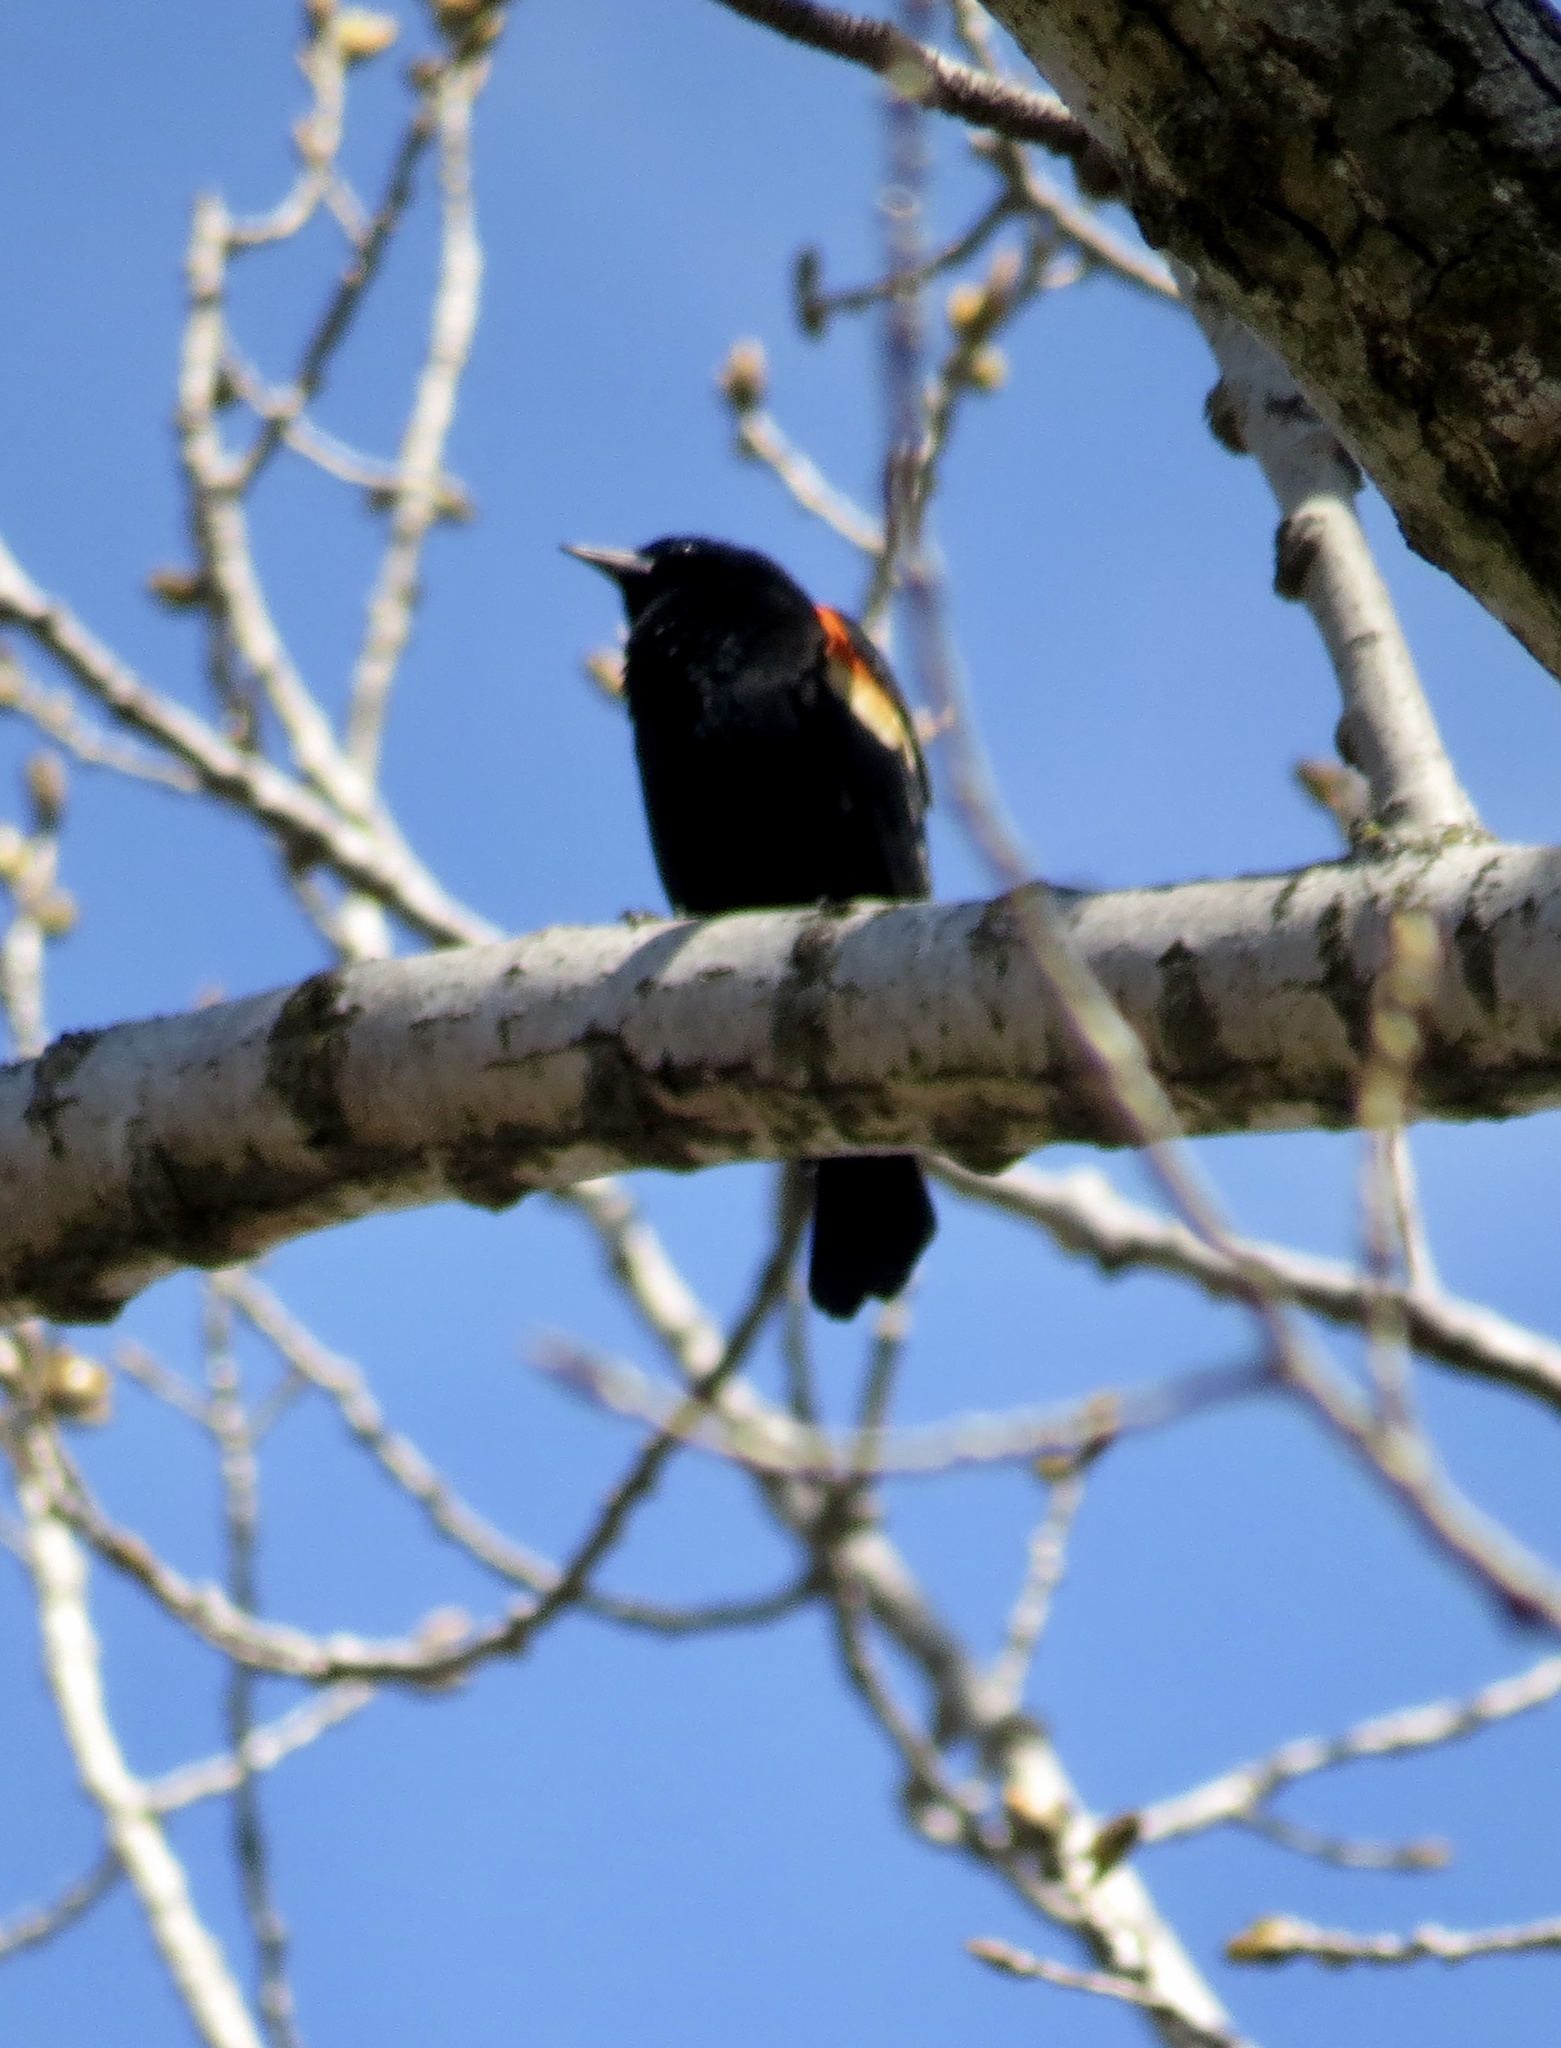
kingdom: Animalia
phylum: Chordata
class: Aves
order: Passeriformes
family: Icteridae
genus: Agelaius
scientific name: Agelaius phoeniceus
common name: Red-winged blackbird
